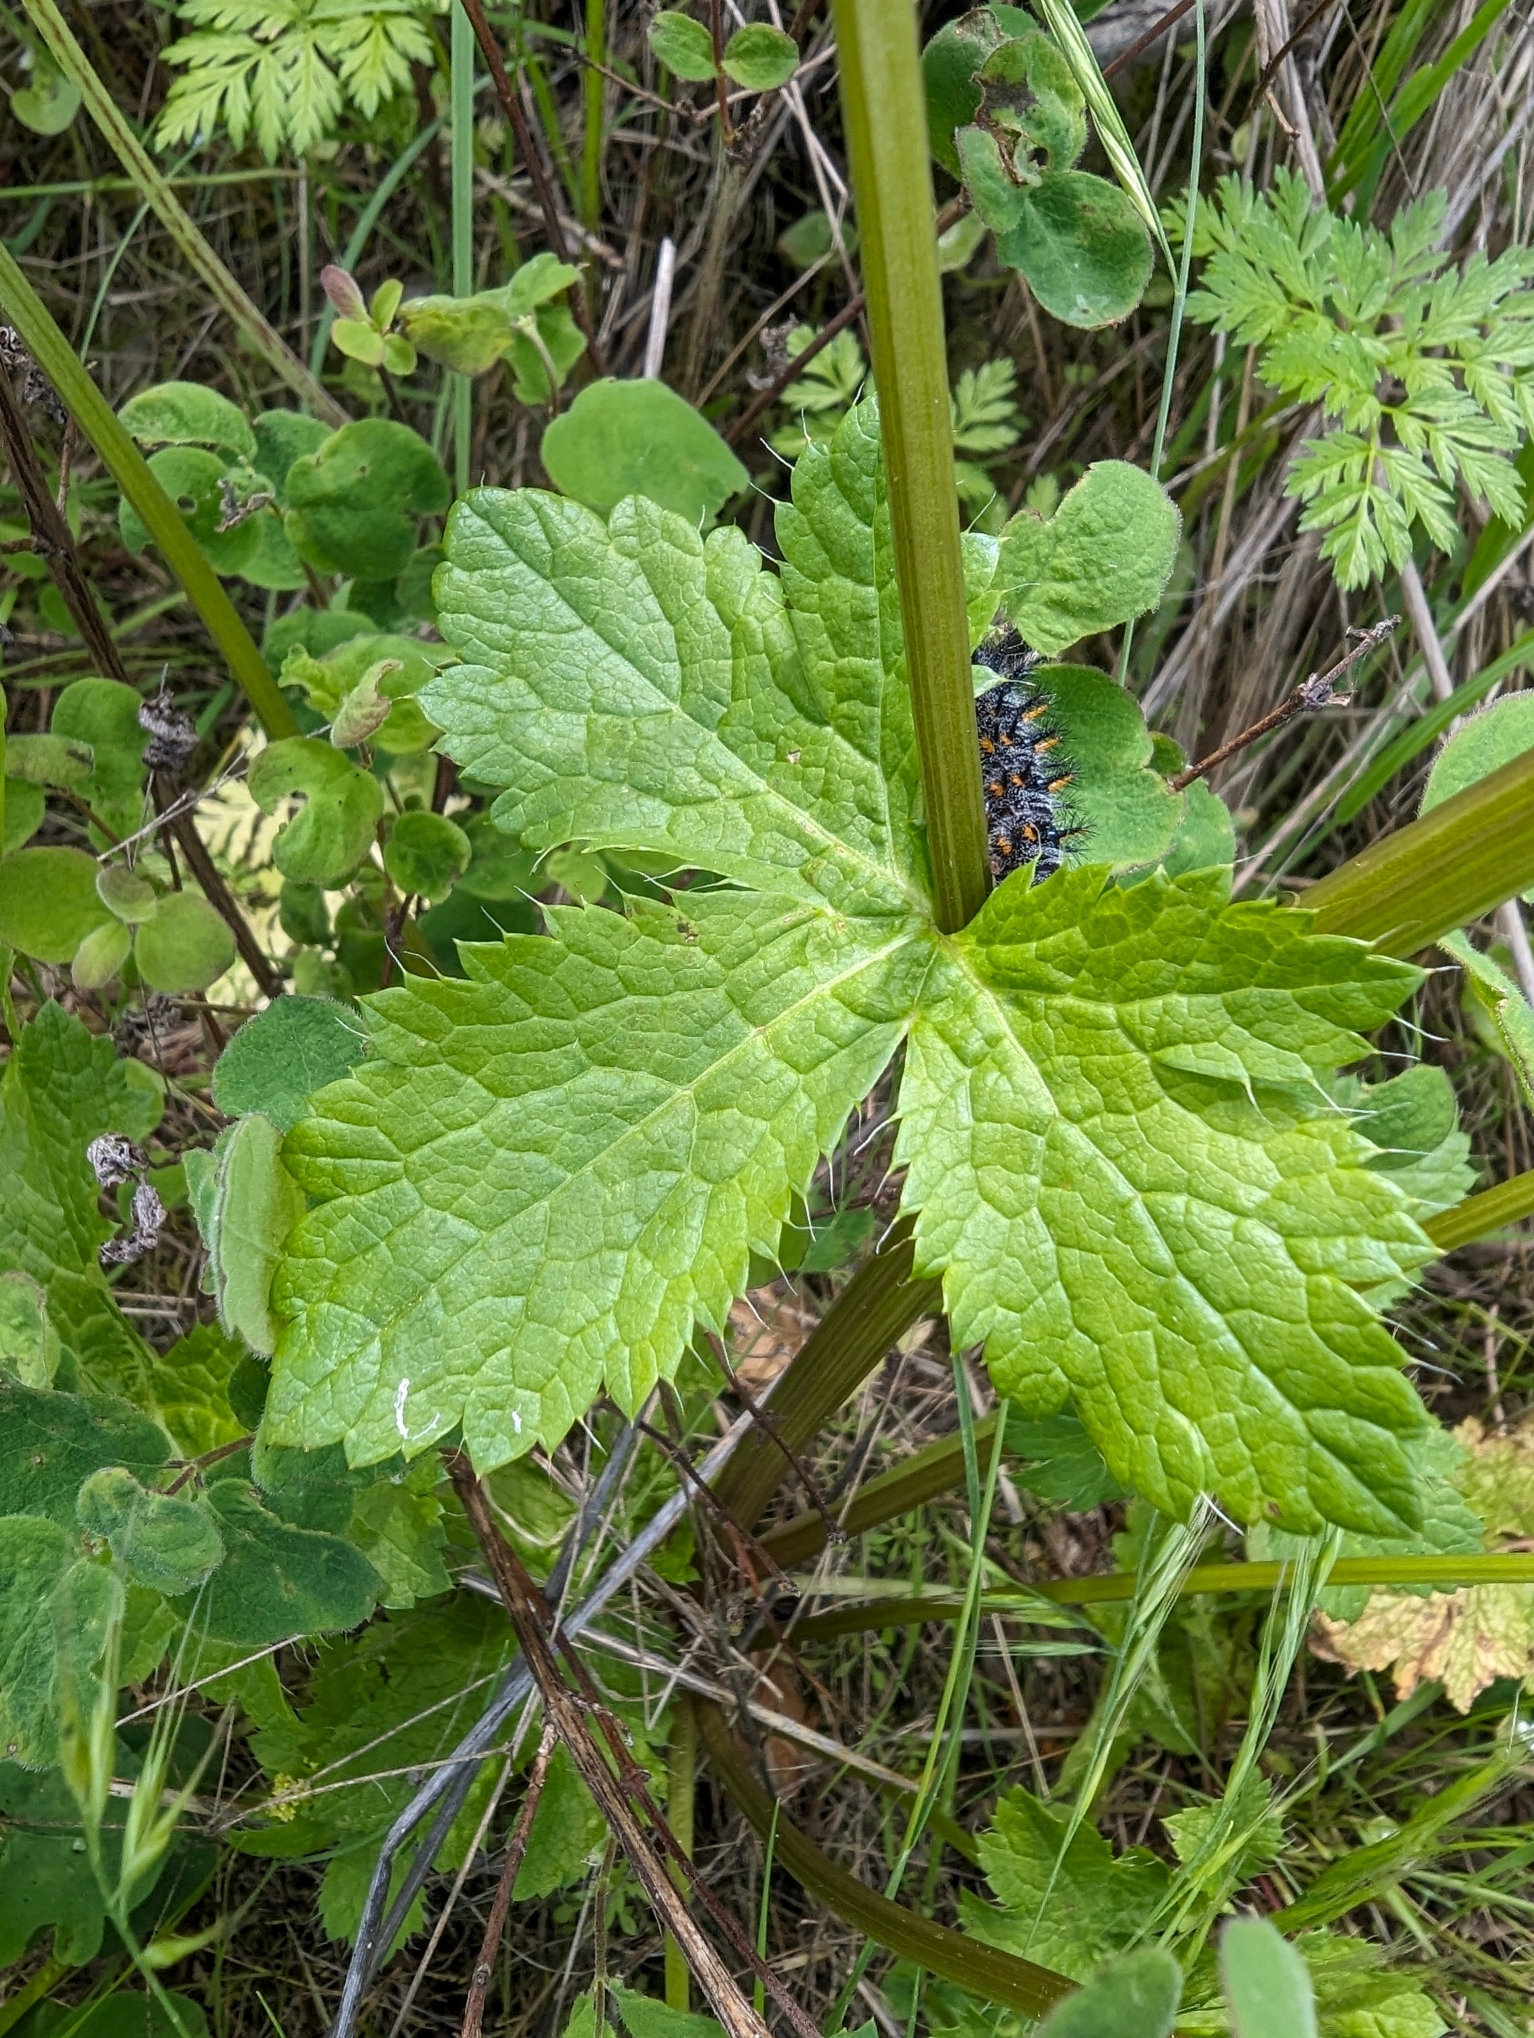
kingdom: Plantae
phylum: Tracheophyta
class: Magnoliopsida
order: Apiales
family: Apiaceae
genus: Sanicula
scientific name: Sanicula crassicaulis
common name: Western snakeroot
